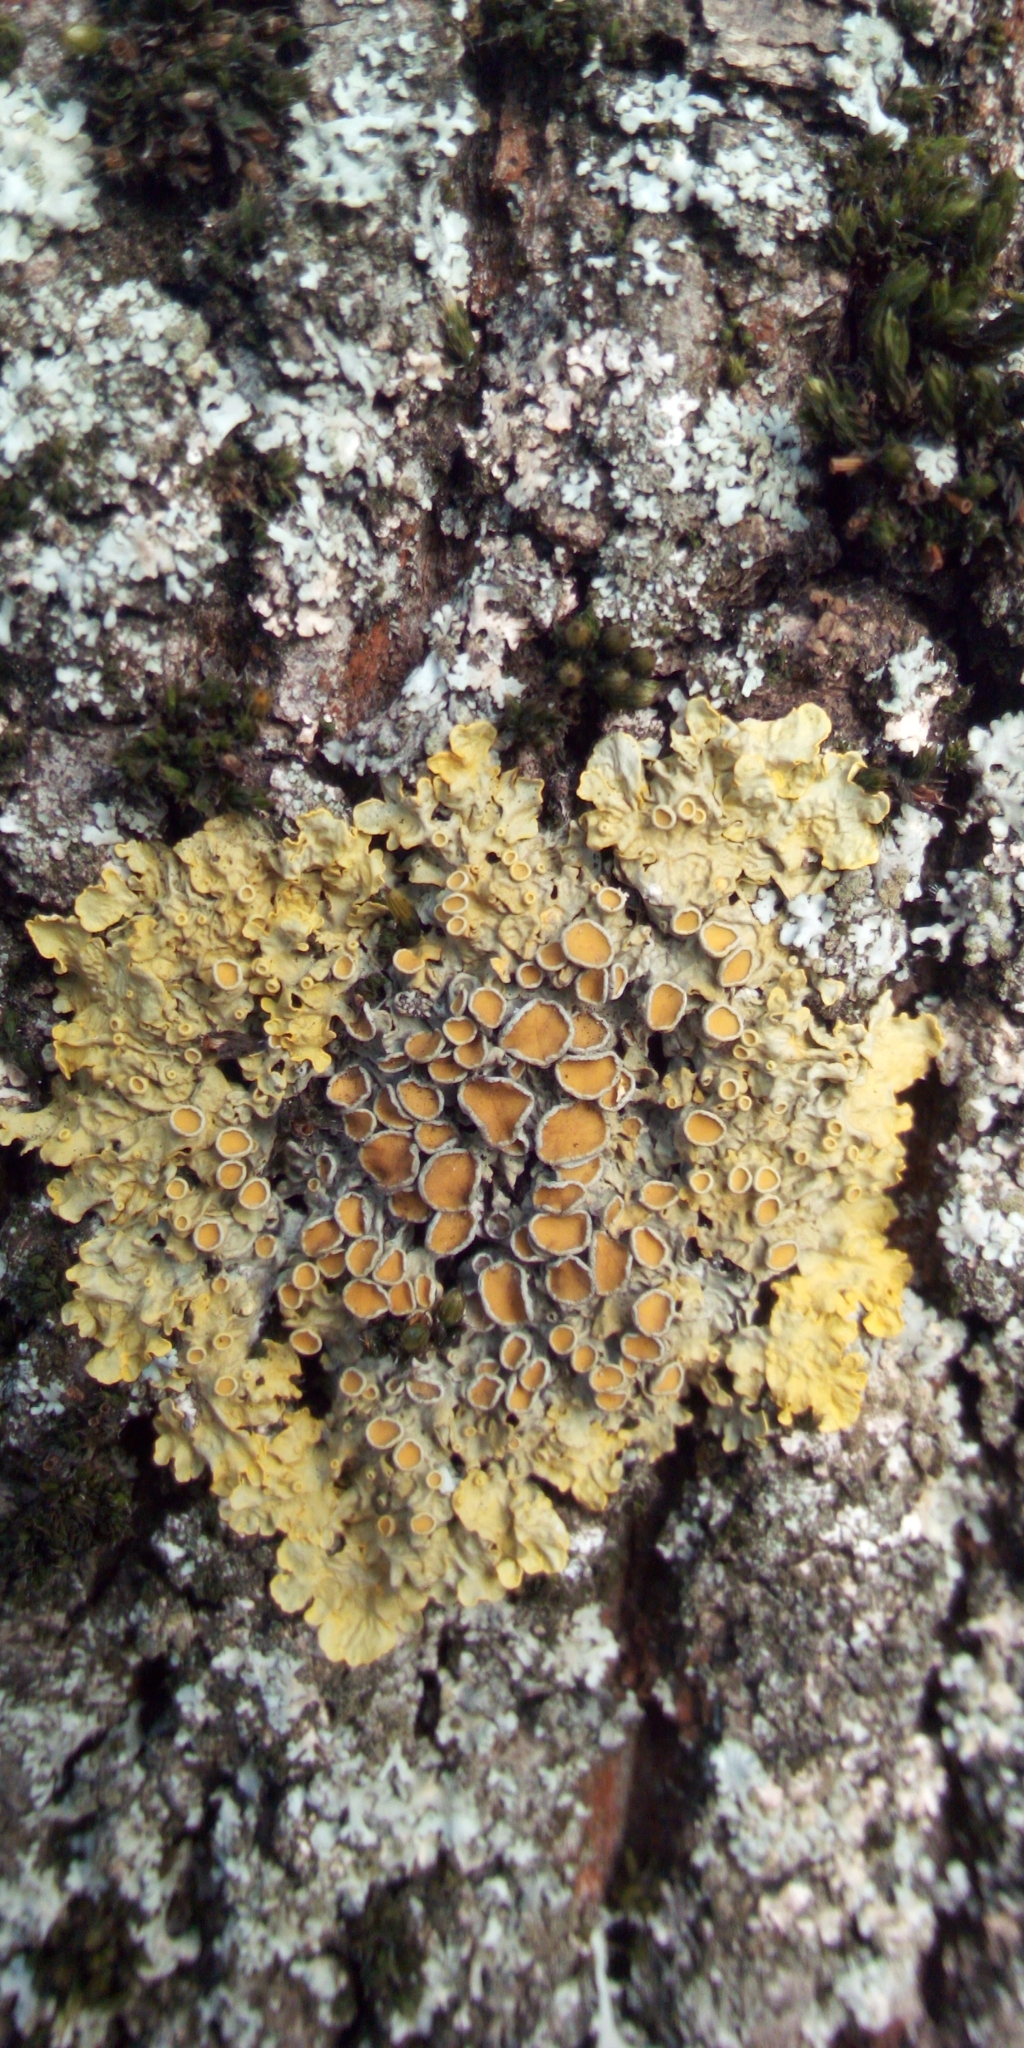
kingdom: Fungi
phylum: Ascomycota
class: Lecanoromycetes
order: Teloschistales
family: Teloschistaceae
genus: Xanthoria
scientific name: Xanthoria parietina
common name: Common orange lichen
